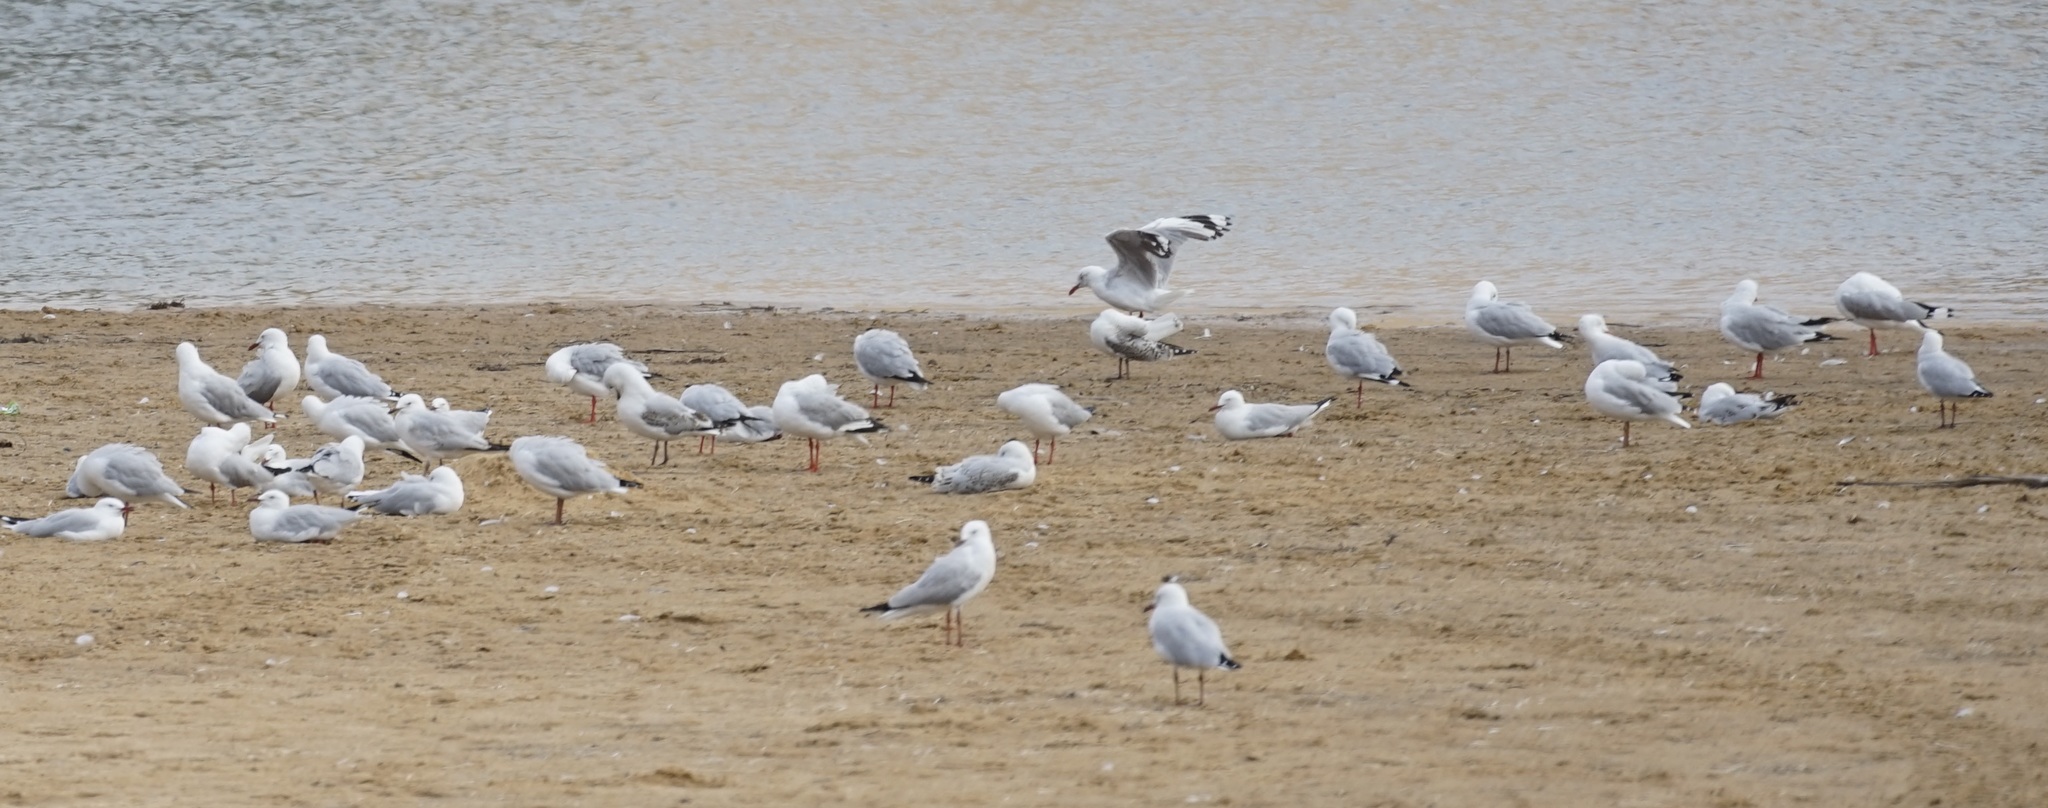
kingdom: Animalia
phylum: Chordata
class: Aves
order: Charadriiformes
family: Laridae
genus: Chroicocephalus
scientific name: Chroicocephalus novaehollandiae
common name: Silver gull
